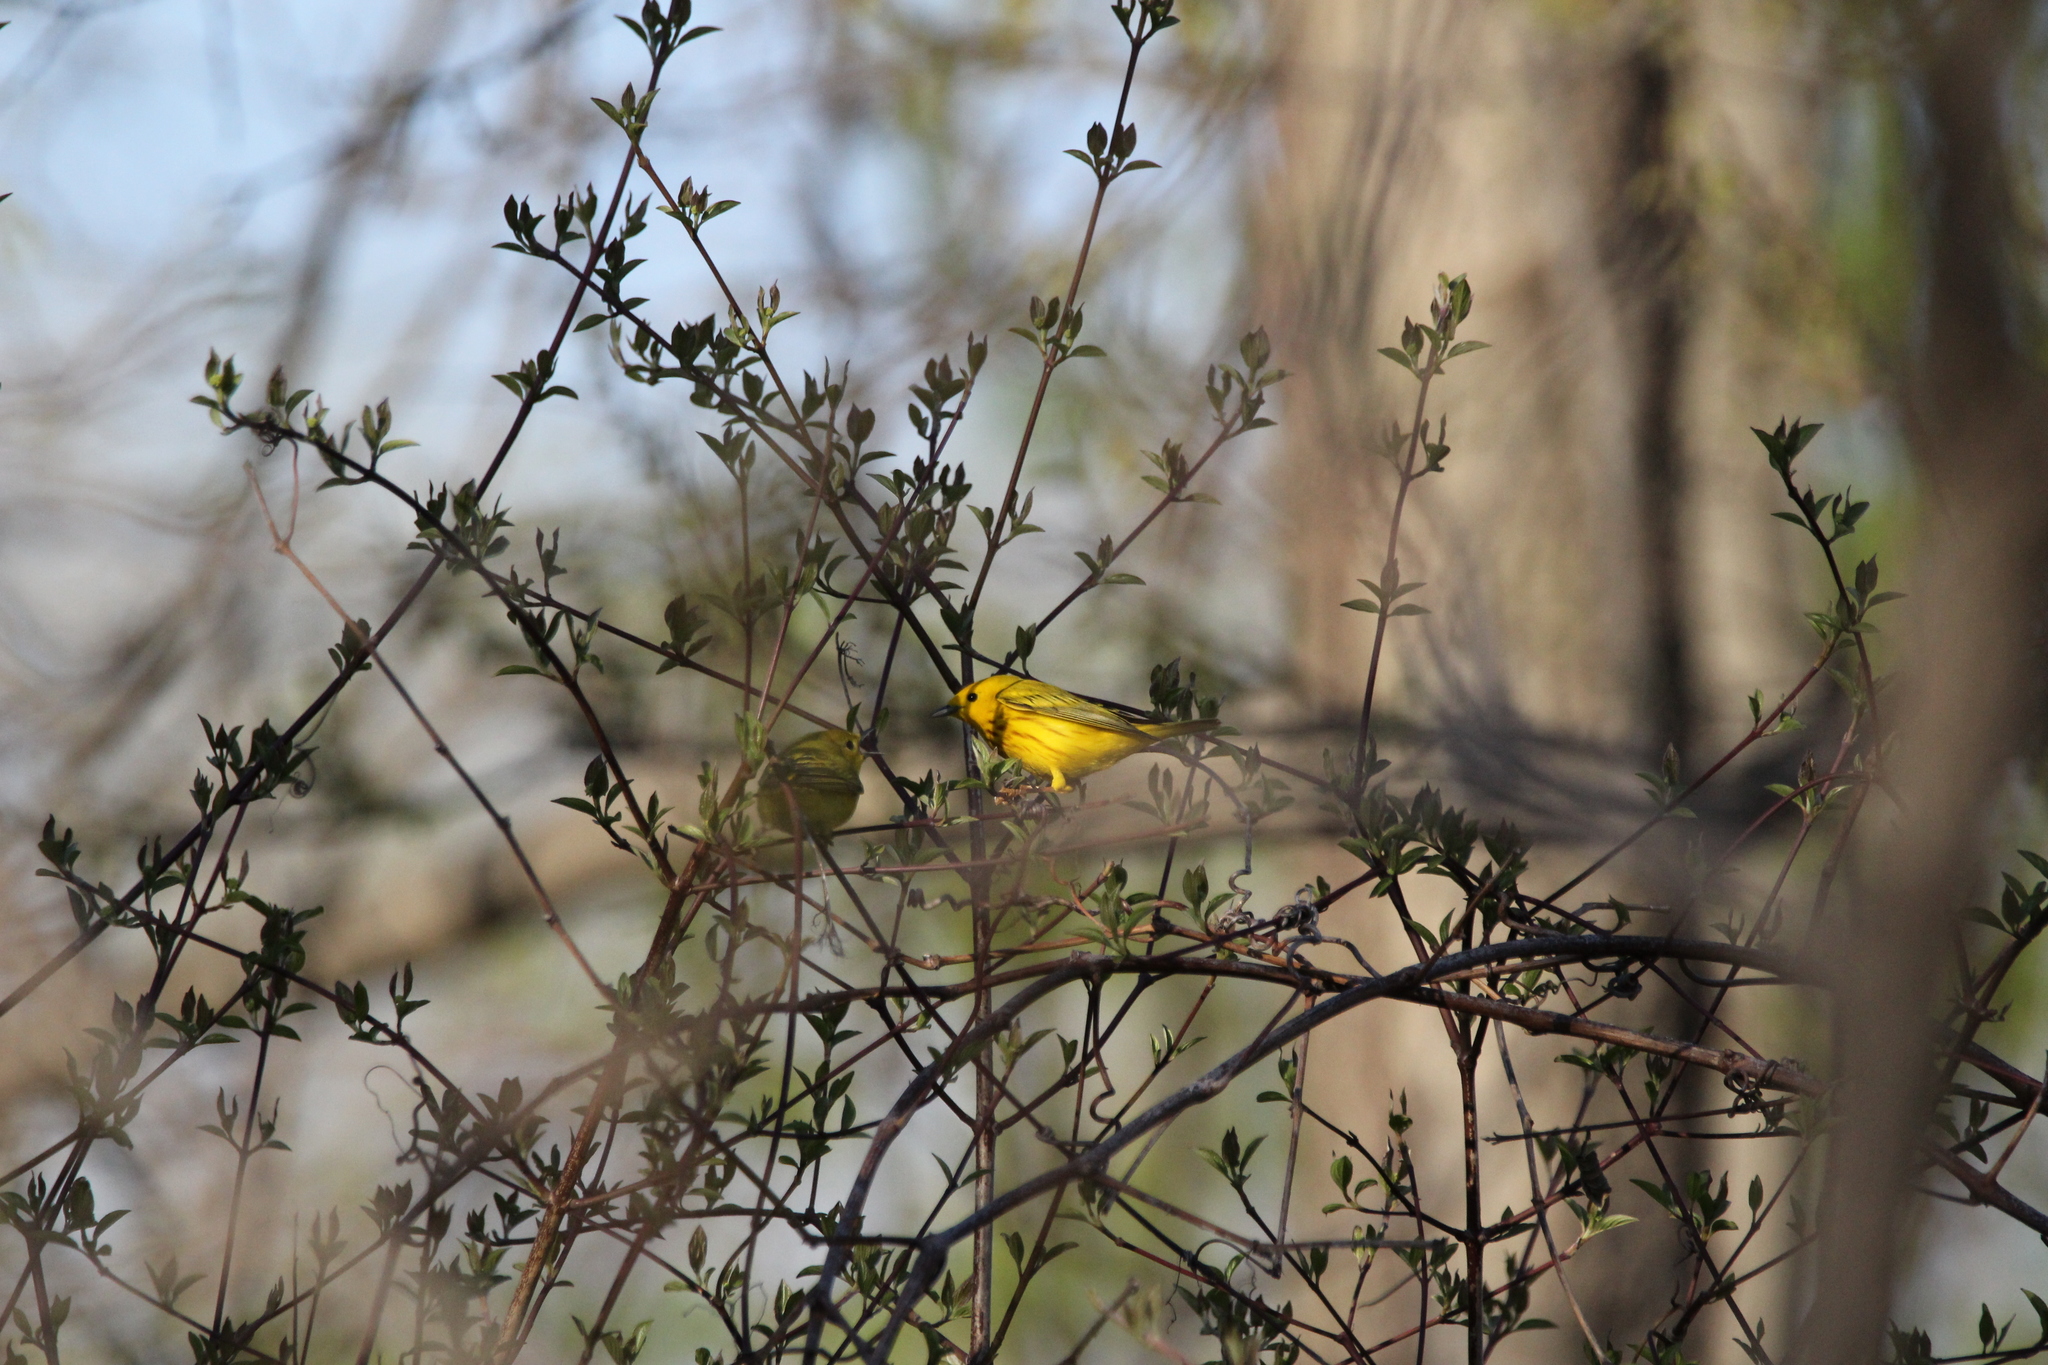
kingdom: Animalia
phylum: Chordata
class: Aves
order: Passeriformes
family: Parulidae
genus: Setophaga
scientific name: Setophaga petechia
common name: Yellow warbler
